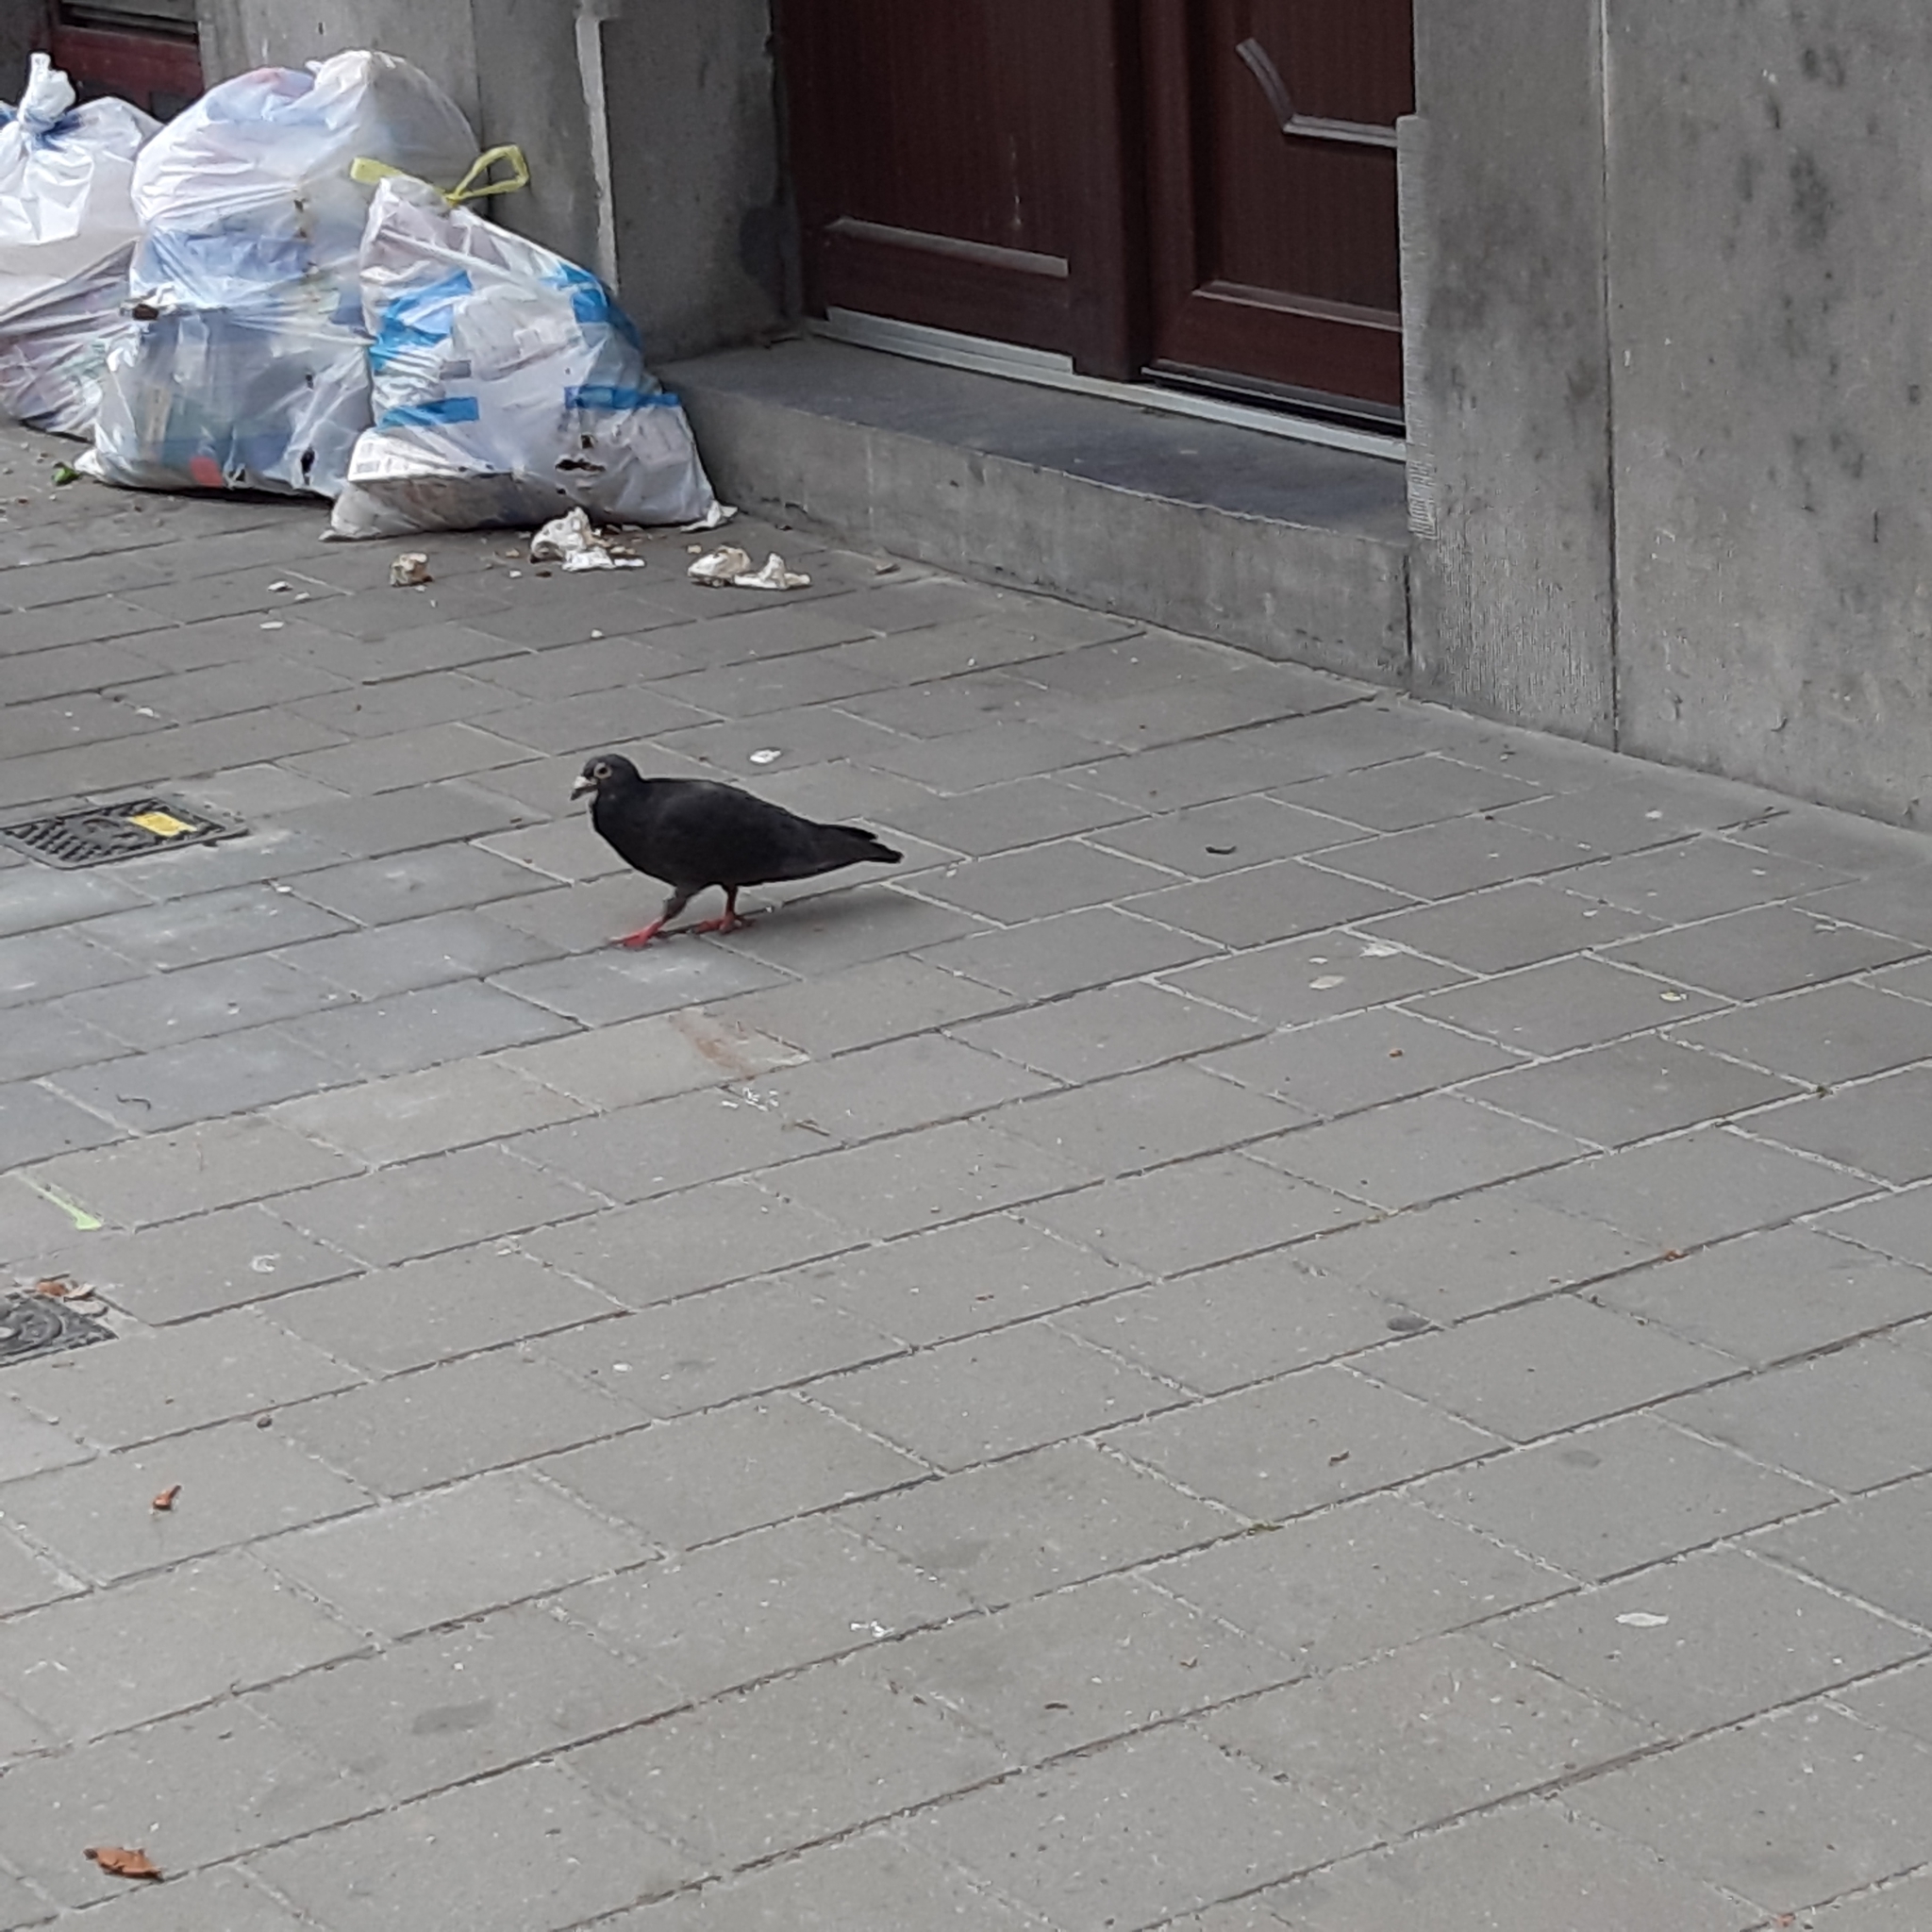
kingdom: Animalia
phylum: Chordata
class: Aves
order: Columbiformes
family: Columbidae
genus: Columba
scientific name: Columba livia
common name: Rock pigeon
